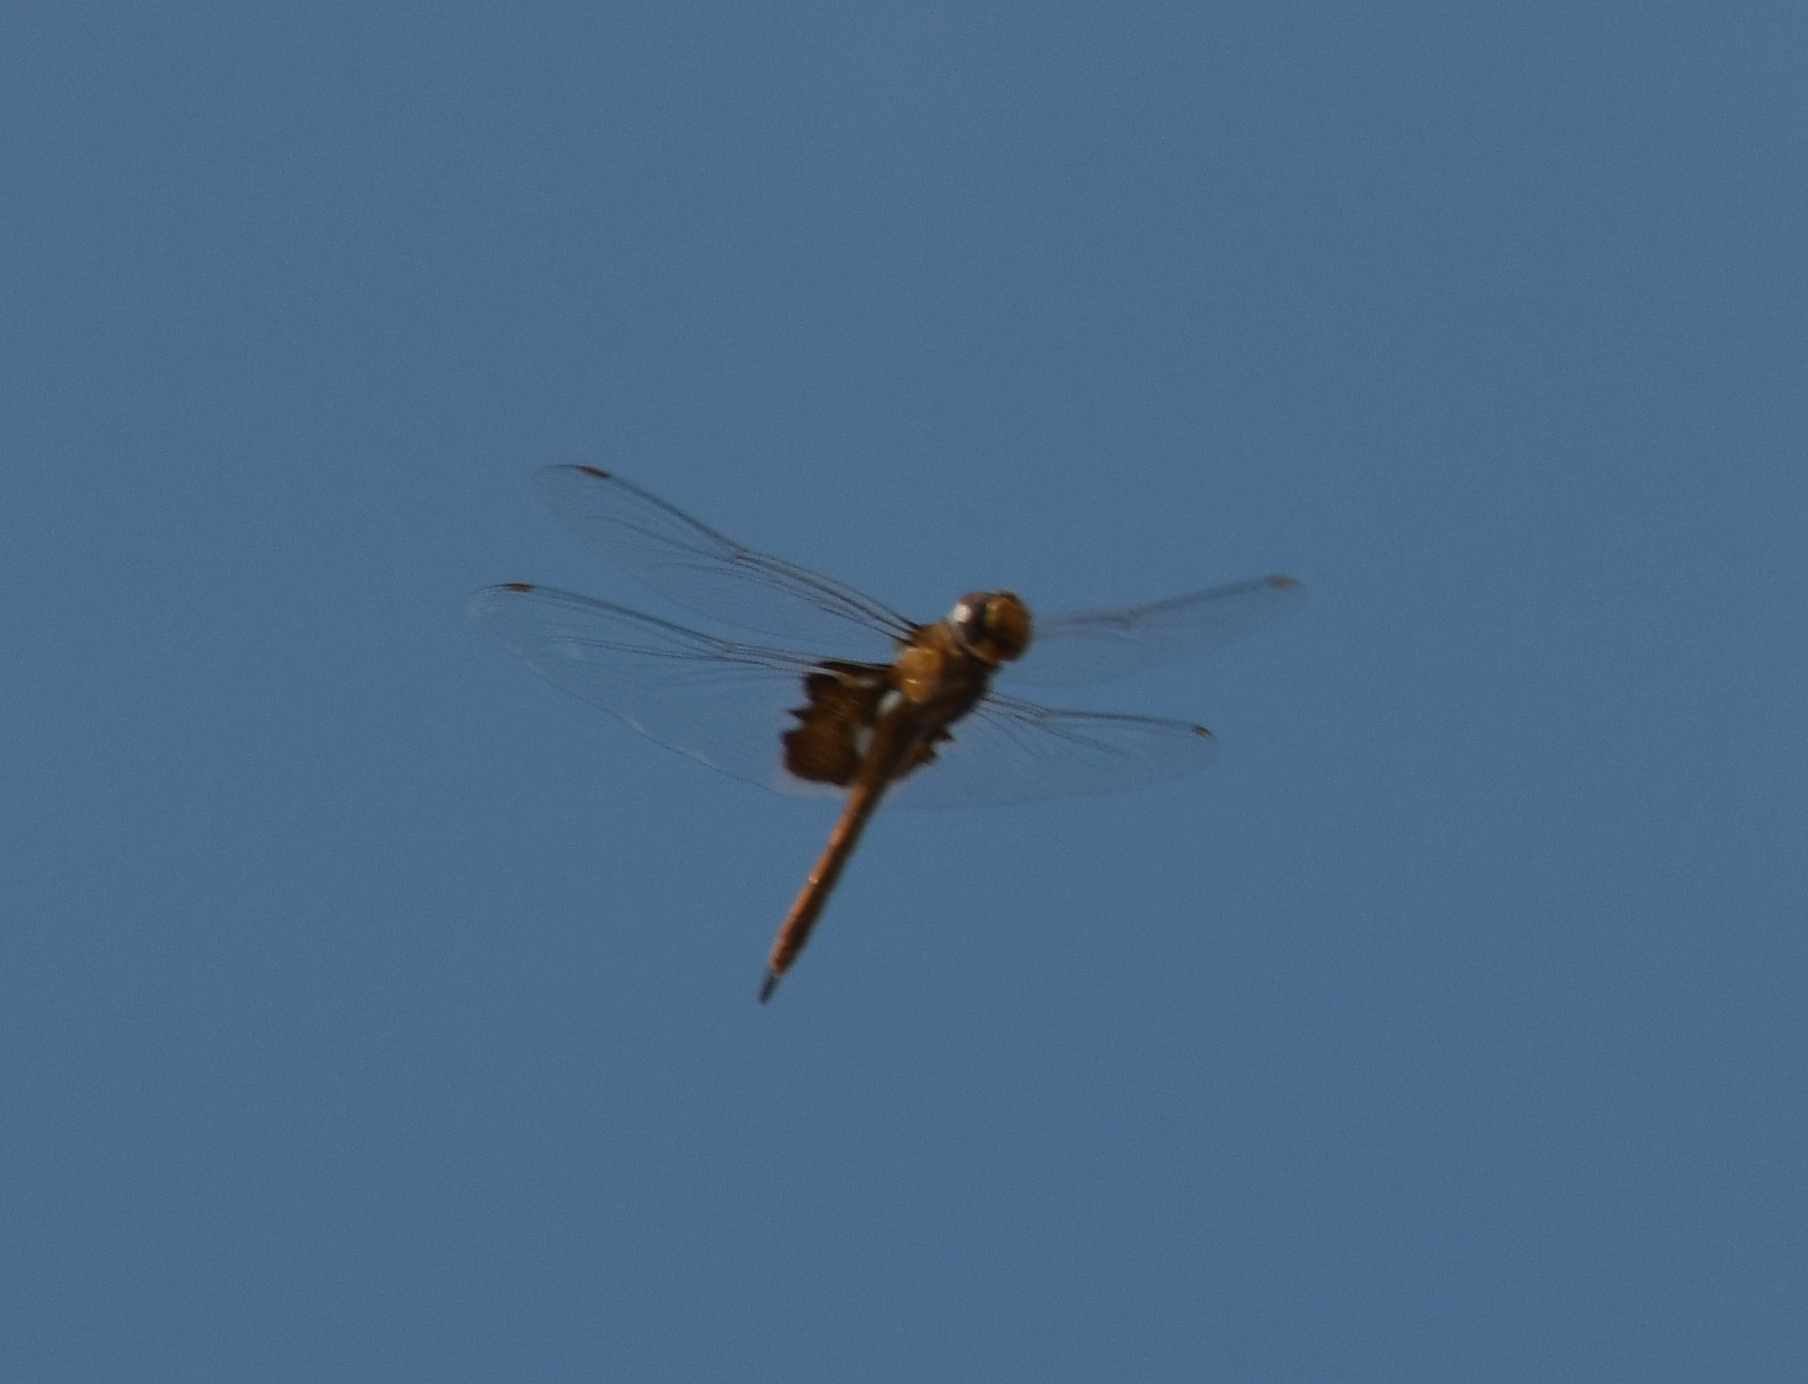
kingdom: Animalia
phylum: Arthropoda
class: Insecta
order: Odonata
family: Libellulidae
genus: Tramea
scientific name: Tramea onusta
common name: Red saddlebags
